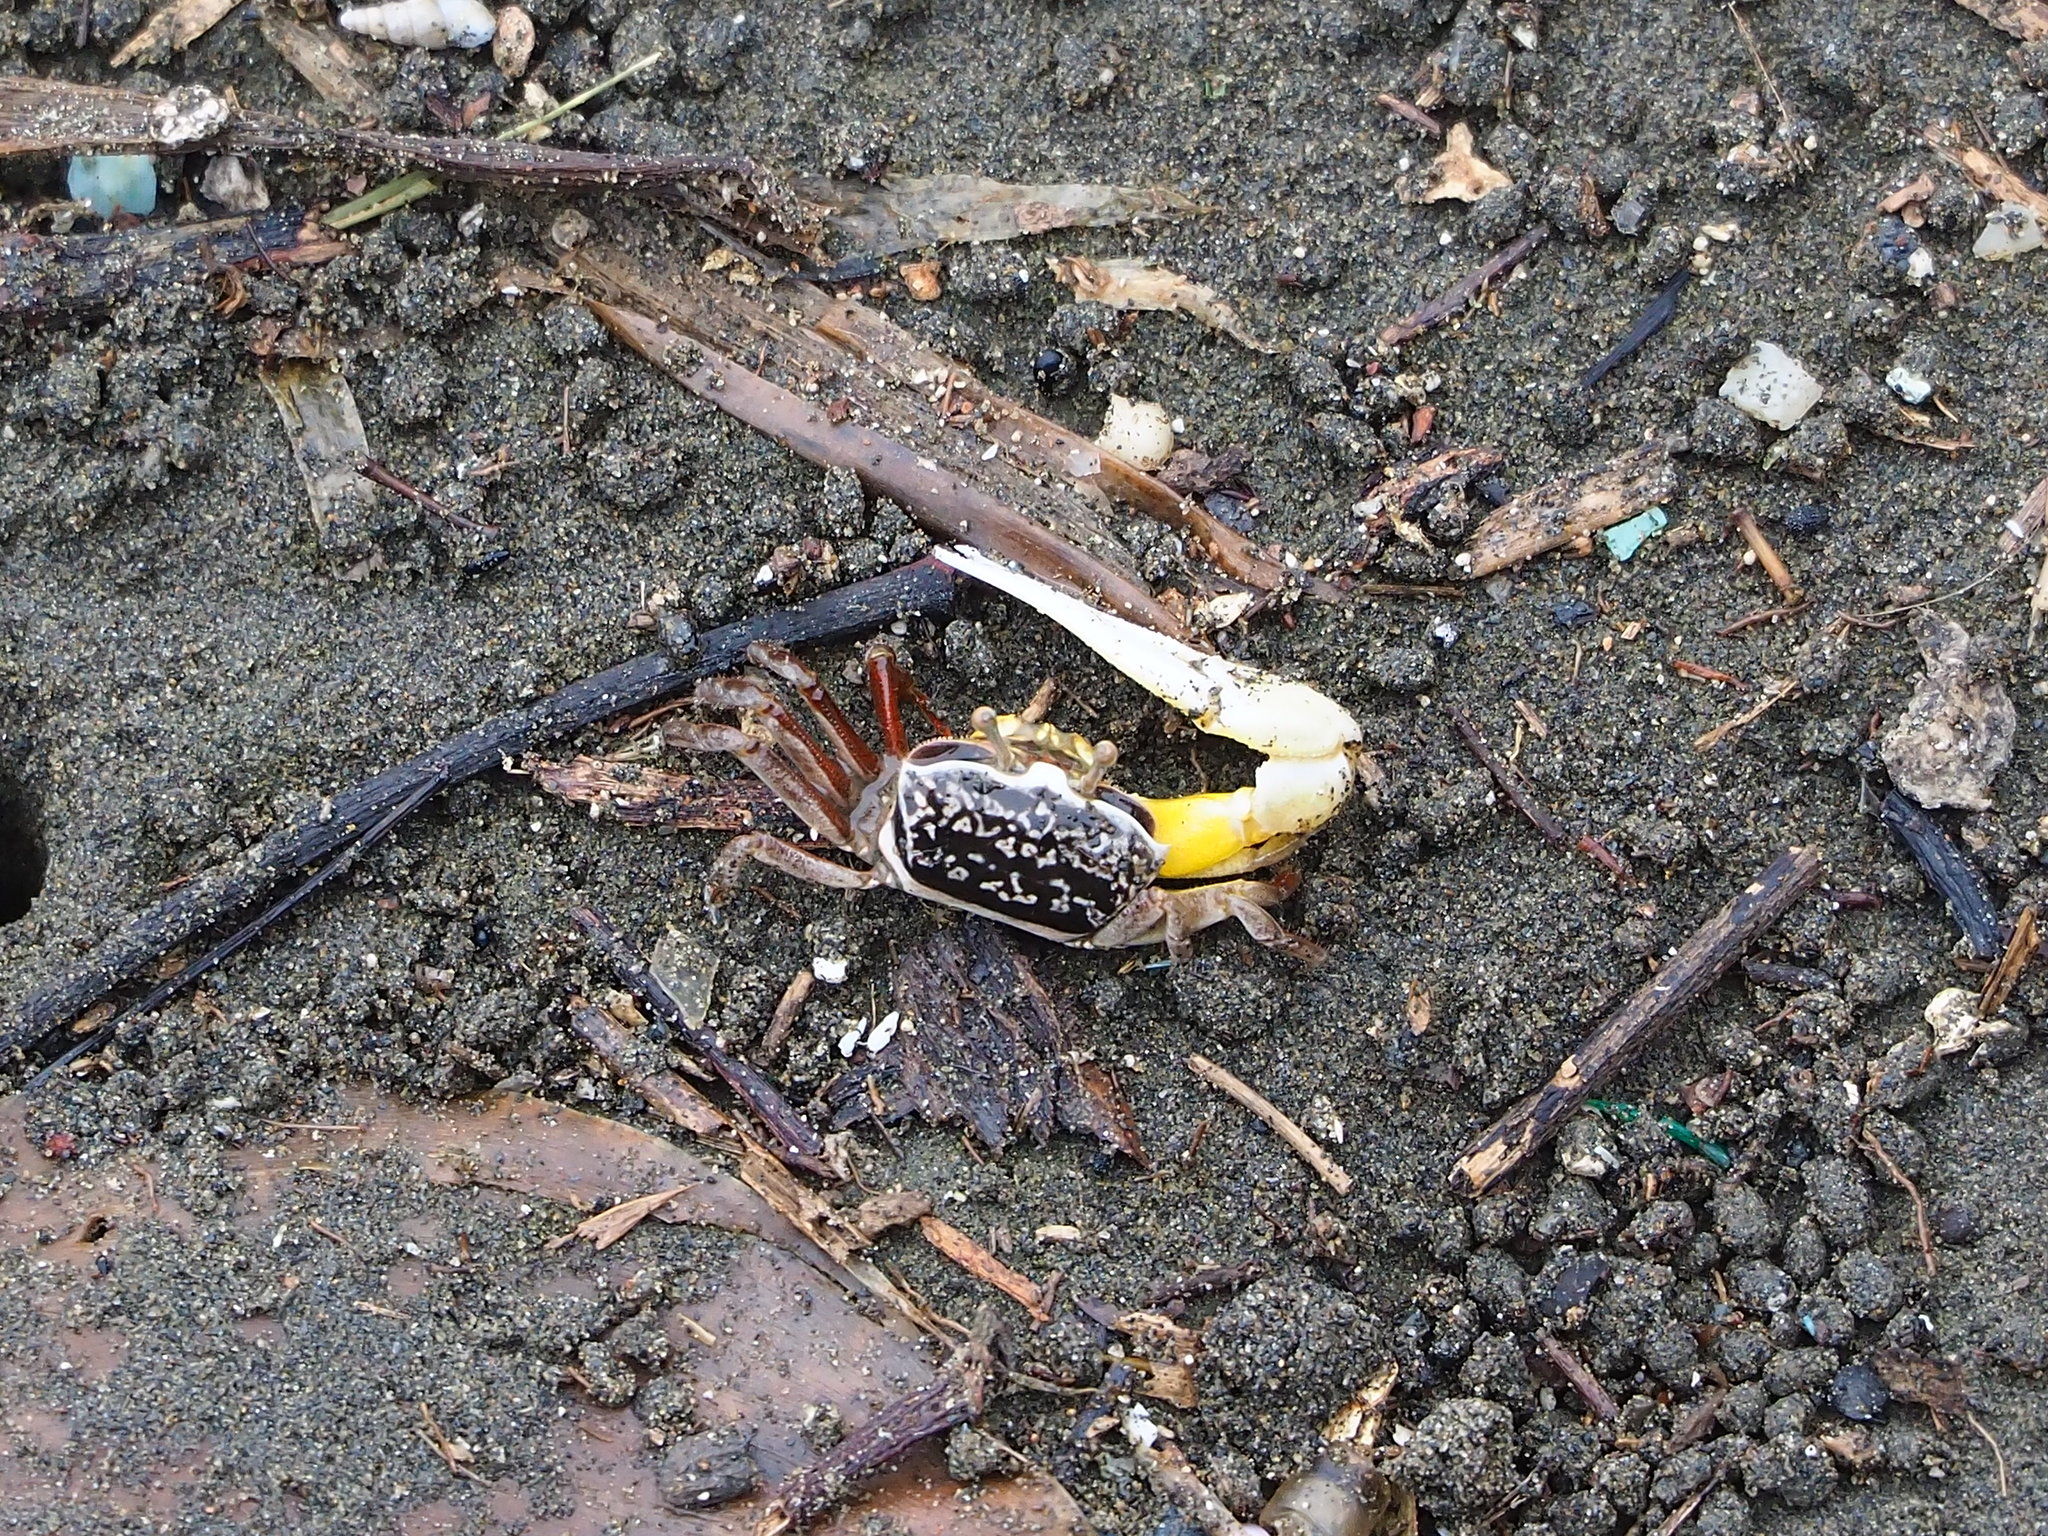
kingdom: Animalia
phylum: Arthropoda
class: Malacostraca
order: Decapoda
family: Ocypodidae
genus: Austruca
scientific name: Austruca lactea
